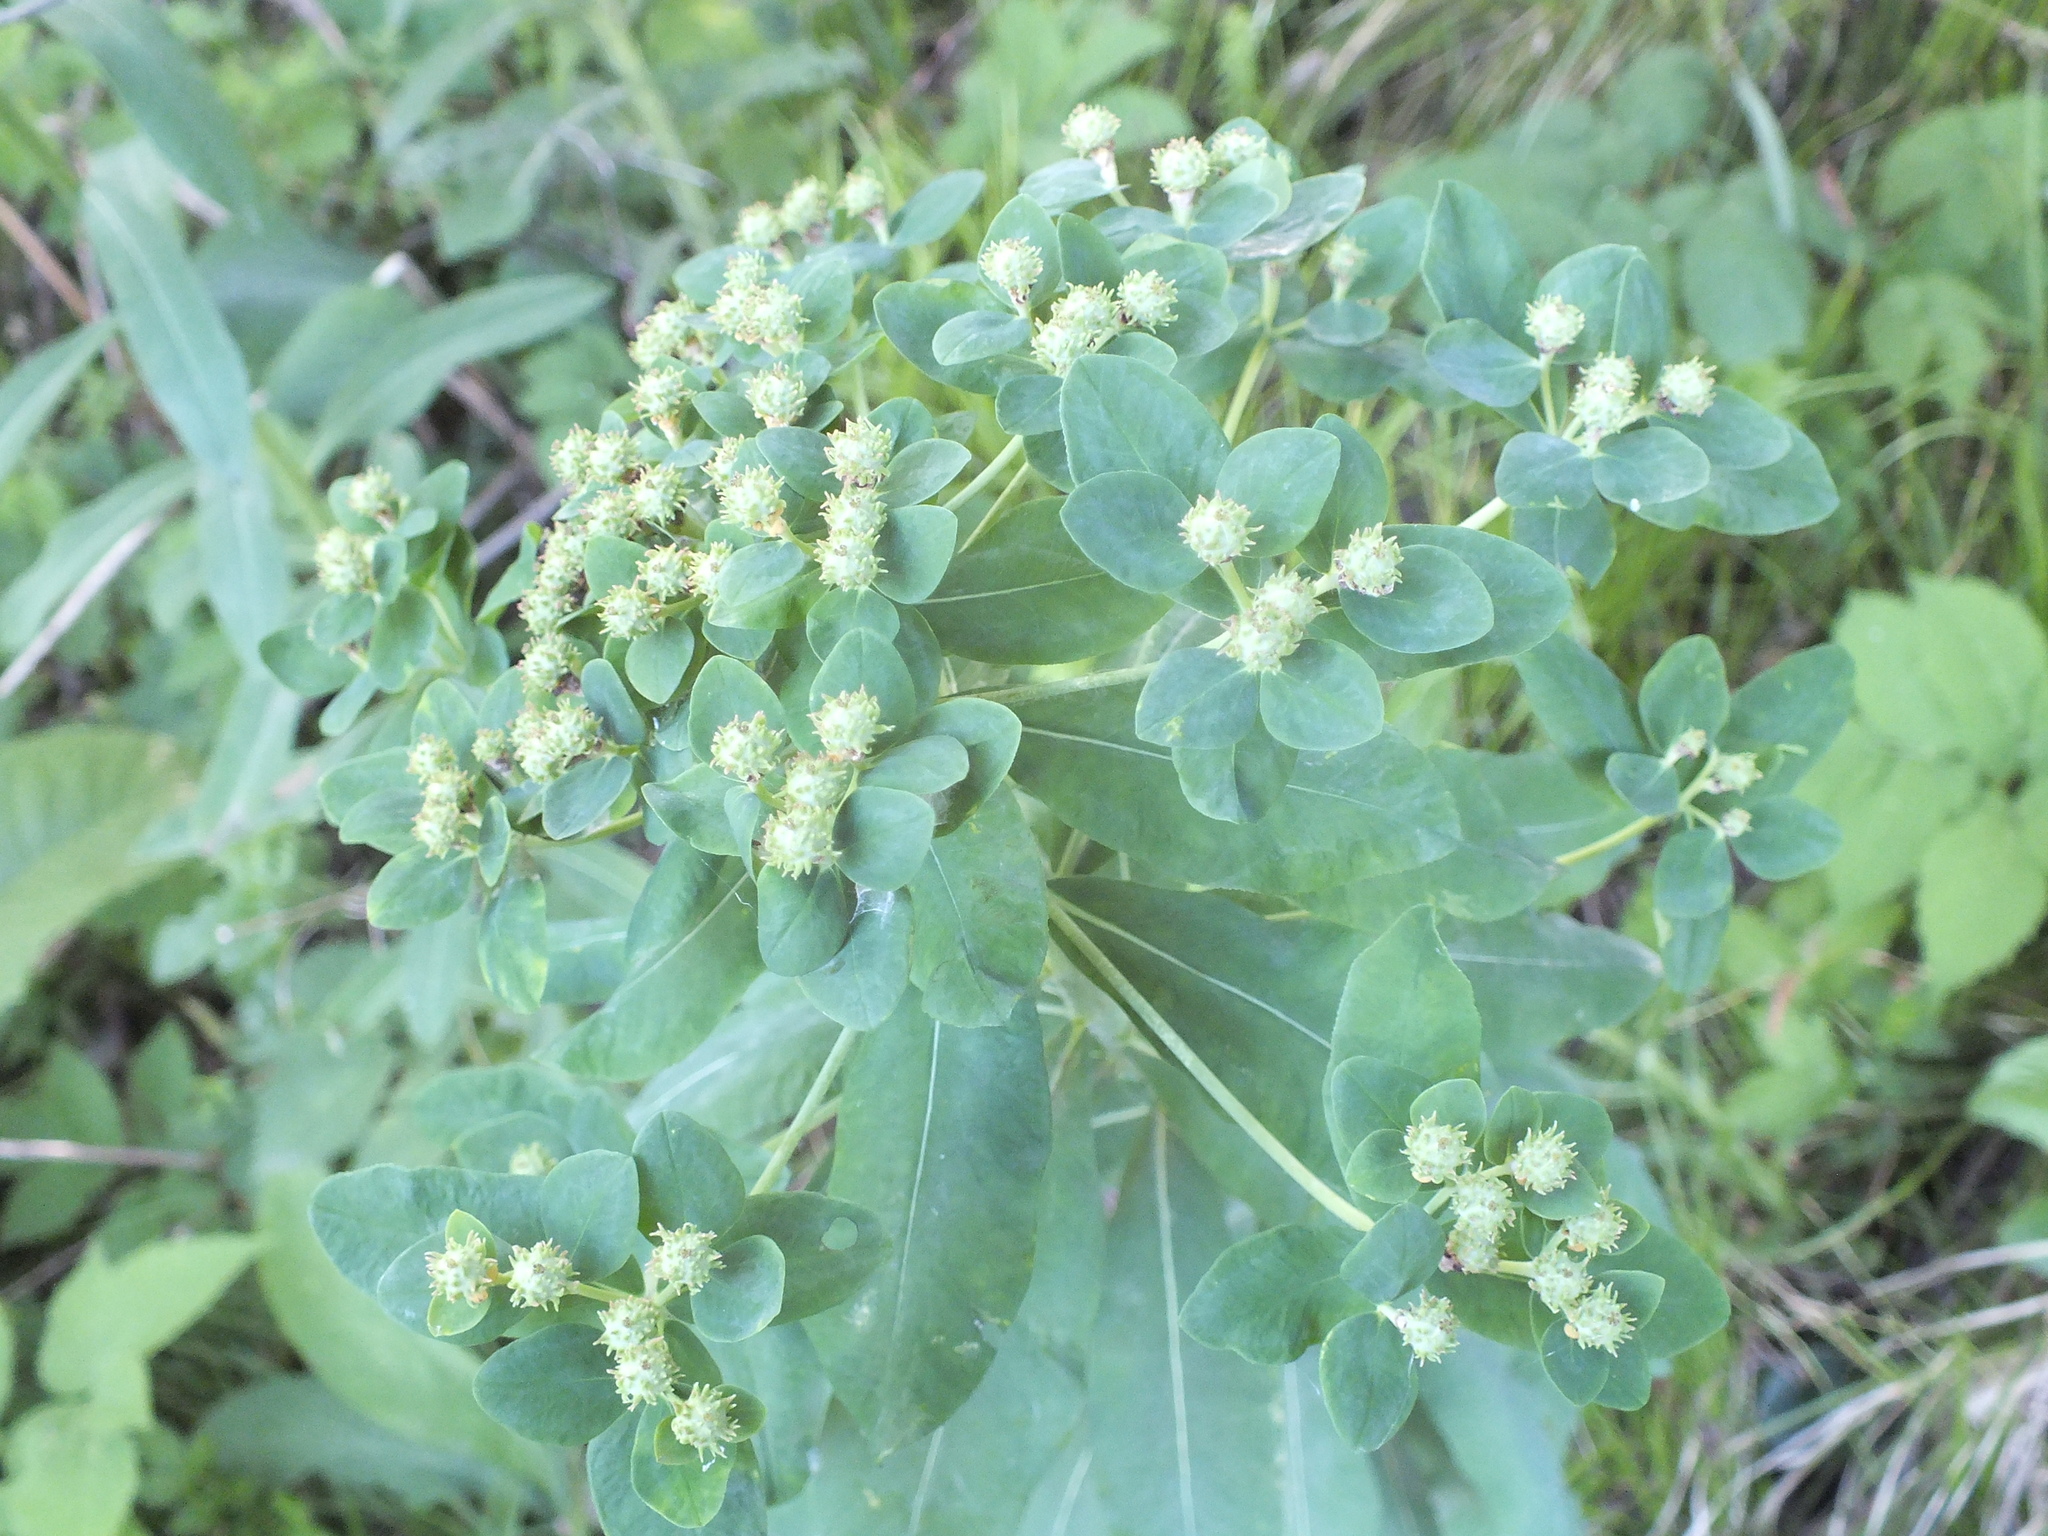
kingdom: Plantae
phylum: Tracheophyta
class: Magnoliopsida
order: Malpighiales
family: Euphorbiaceae
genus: Euphorbia
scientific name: Euphorbia pilosa
